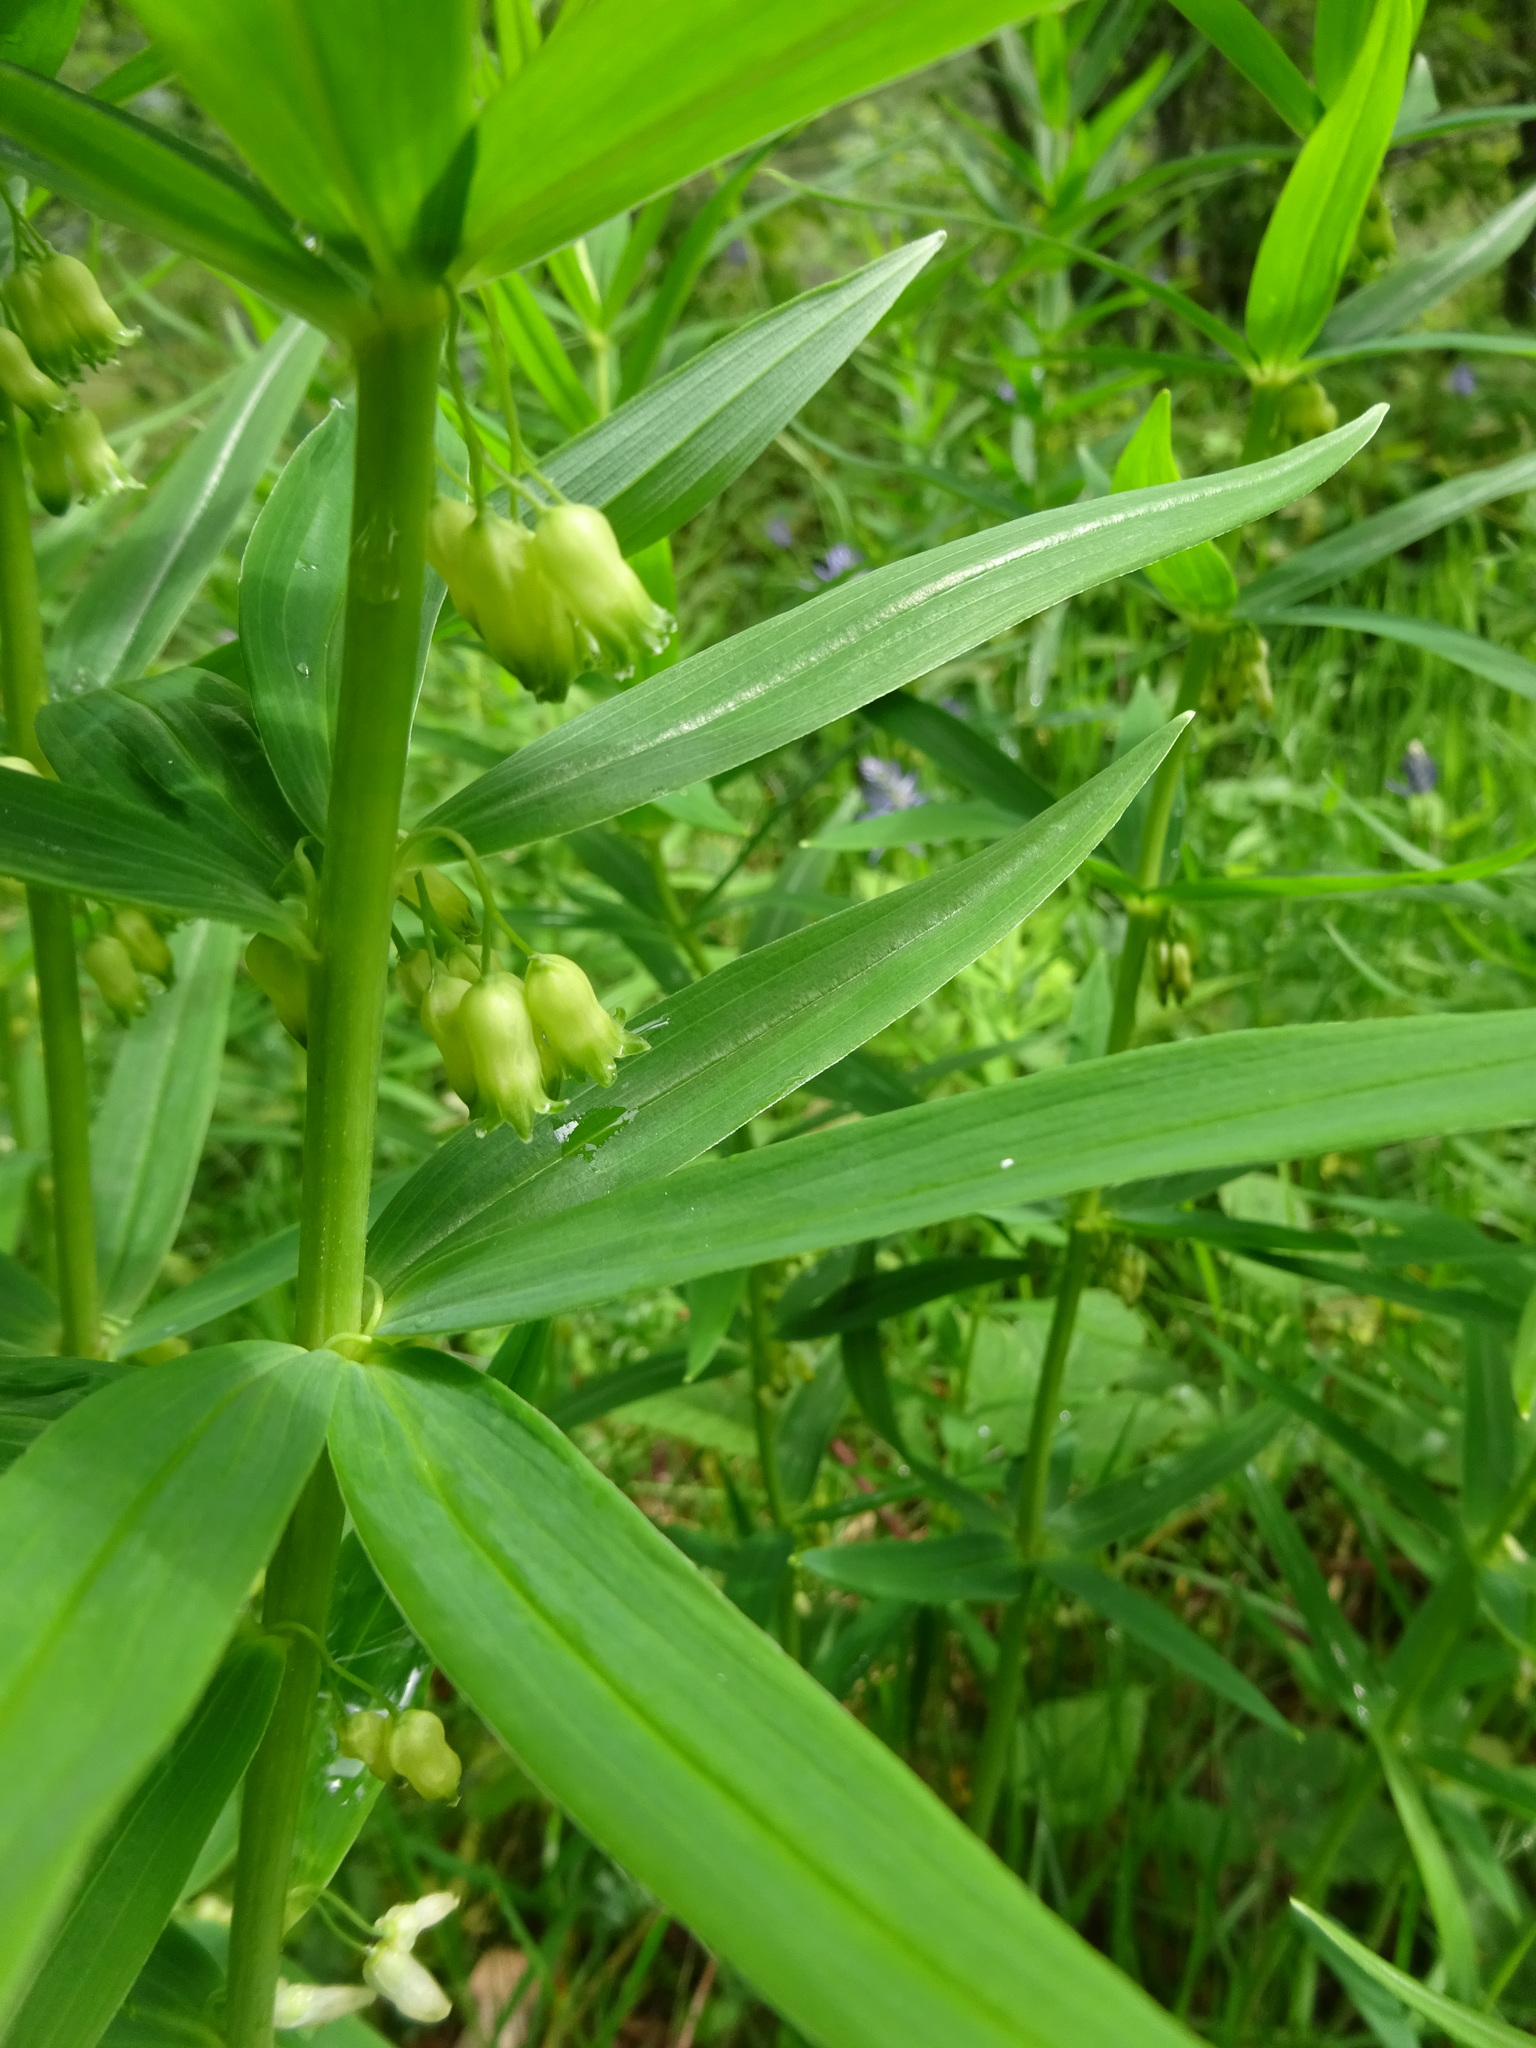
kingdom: Plantae
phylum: Tracheophyta
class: Liliopsida
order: Asparagales
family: Asparagaceae
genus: Polygonatum
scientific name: Polygonatum verticillatum
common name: Whorled solomon's-seal
